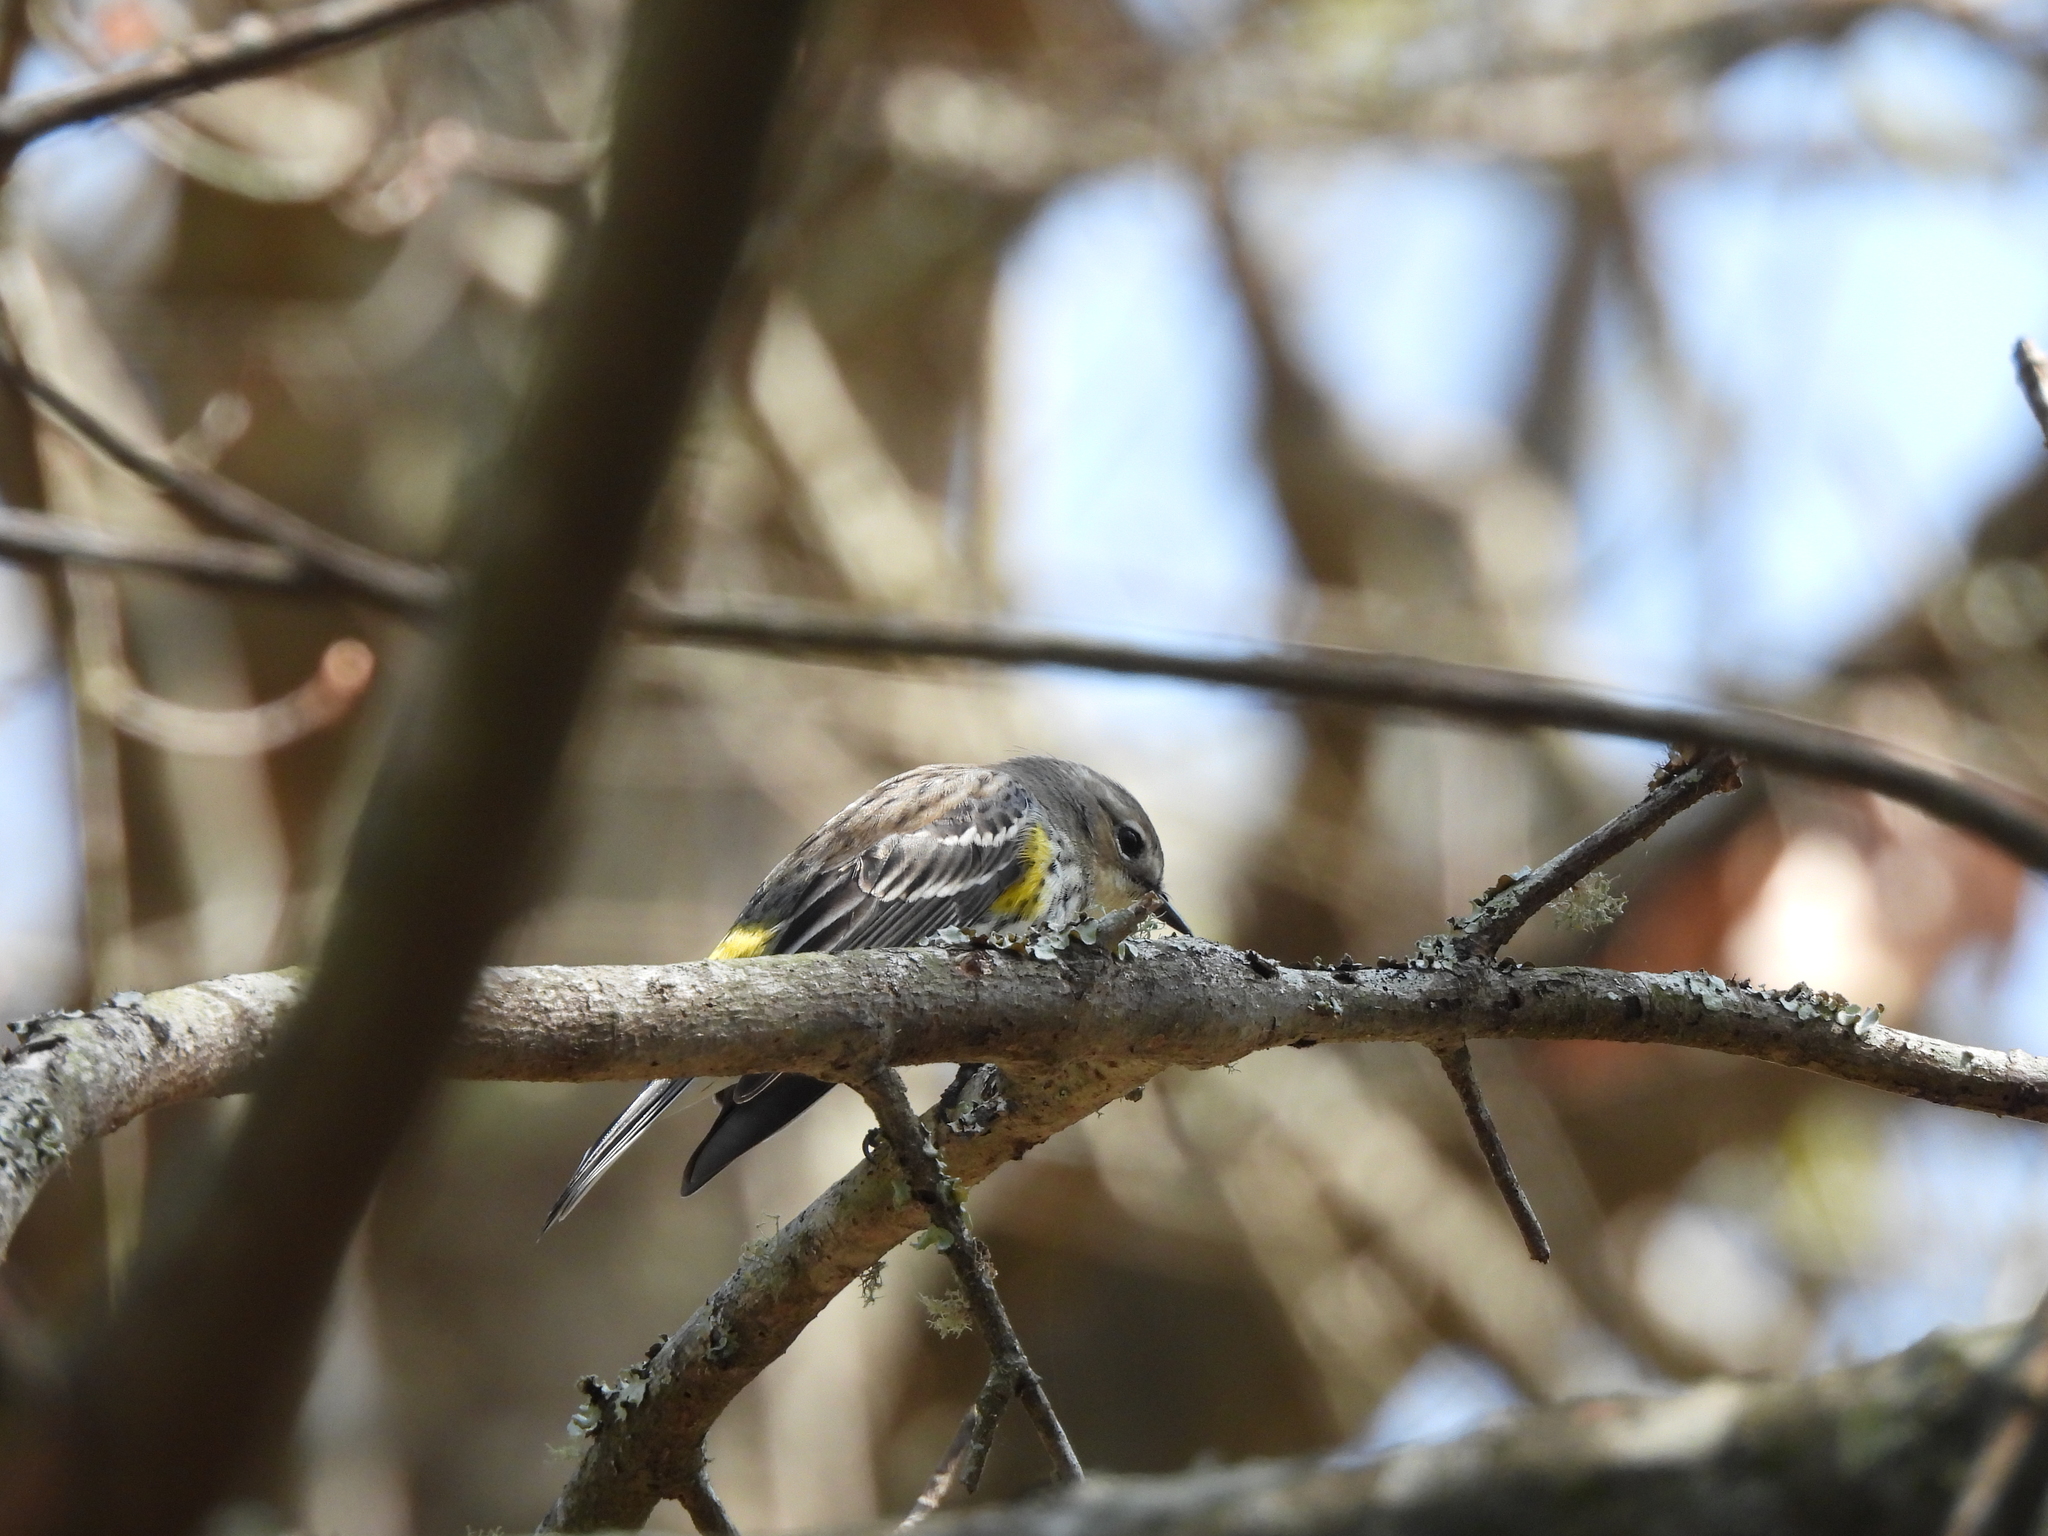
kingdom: Animalia
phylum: Chordata
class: Aves
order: Passeriformes
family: Parulidae
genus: Setophaga
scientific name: Setophaga coronata
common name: Myrtle warbler
